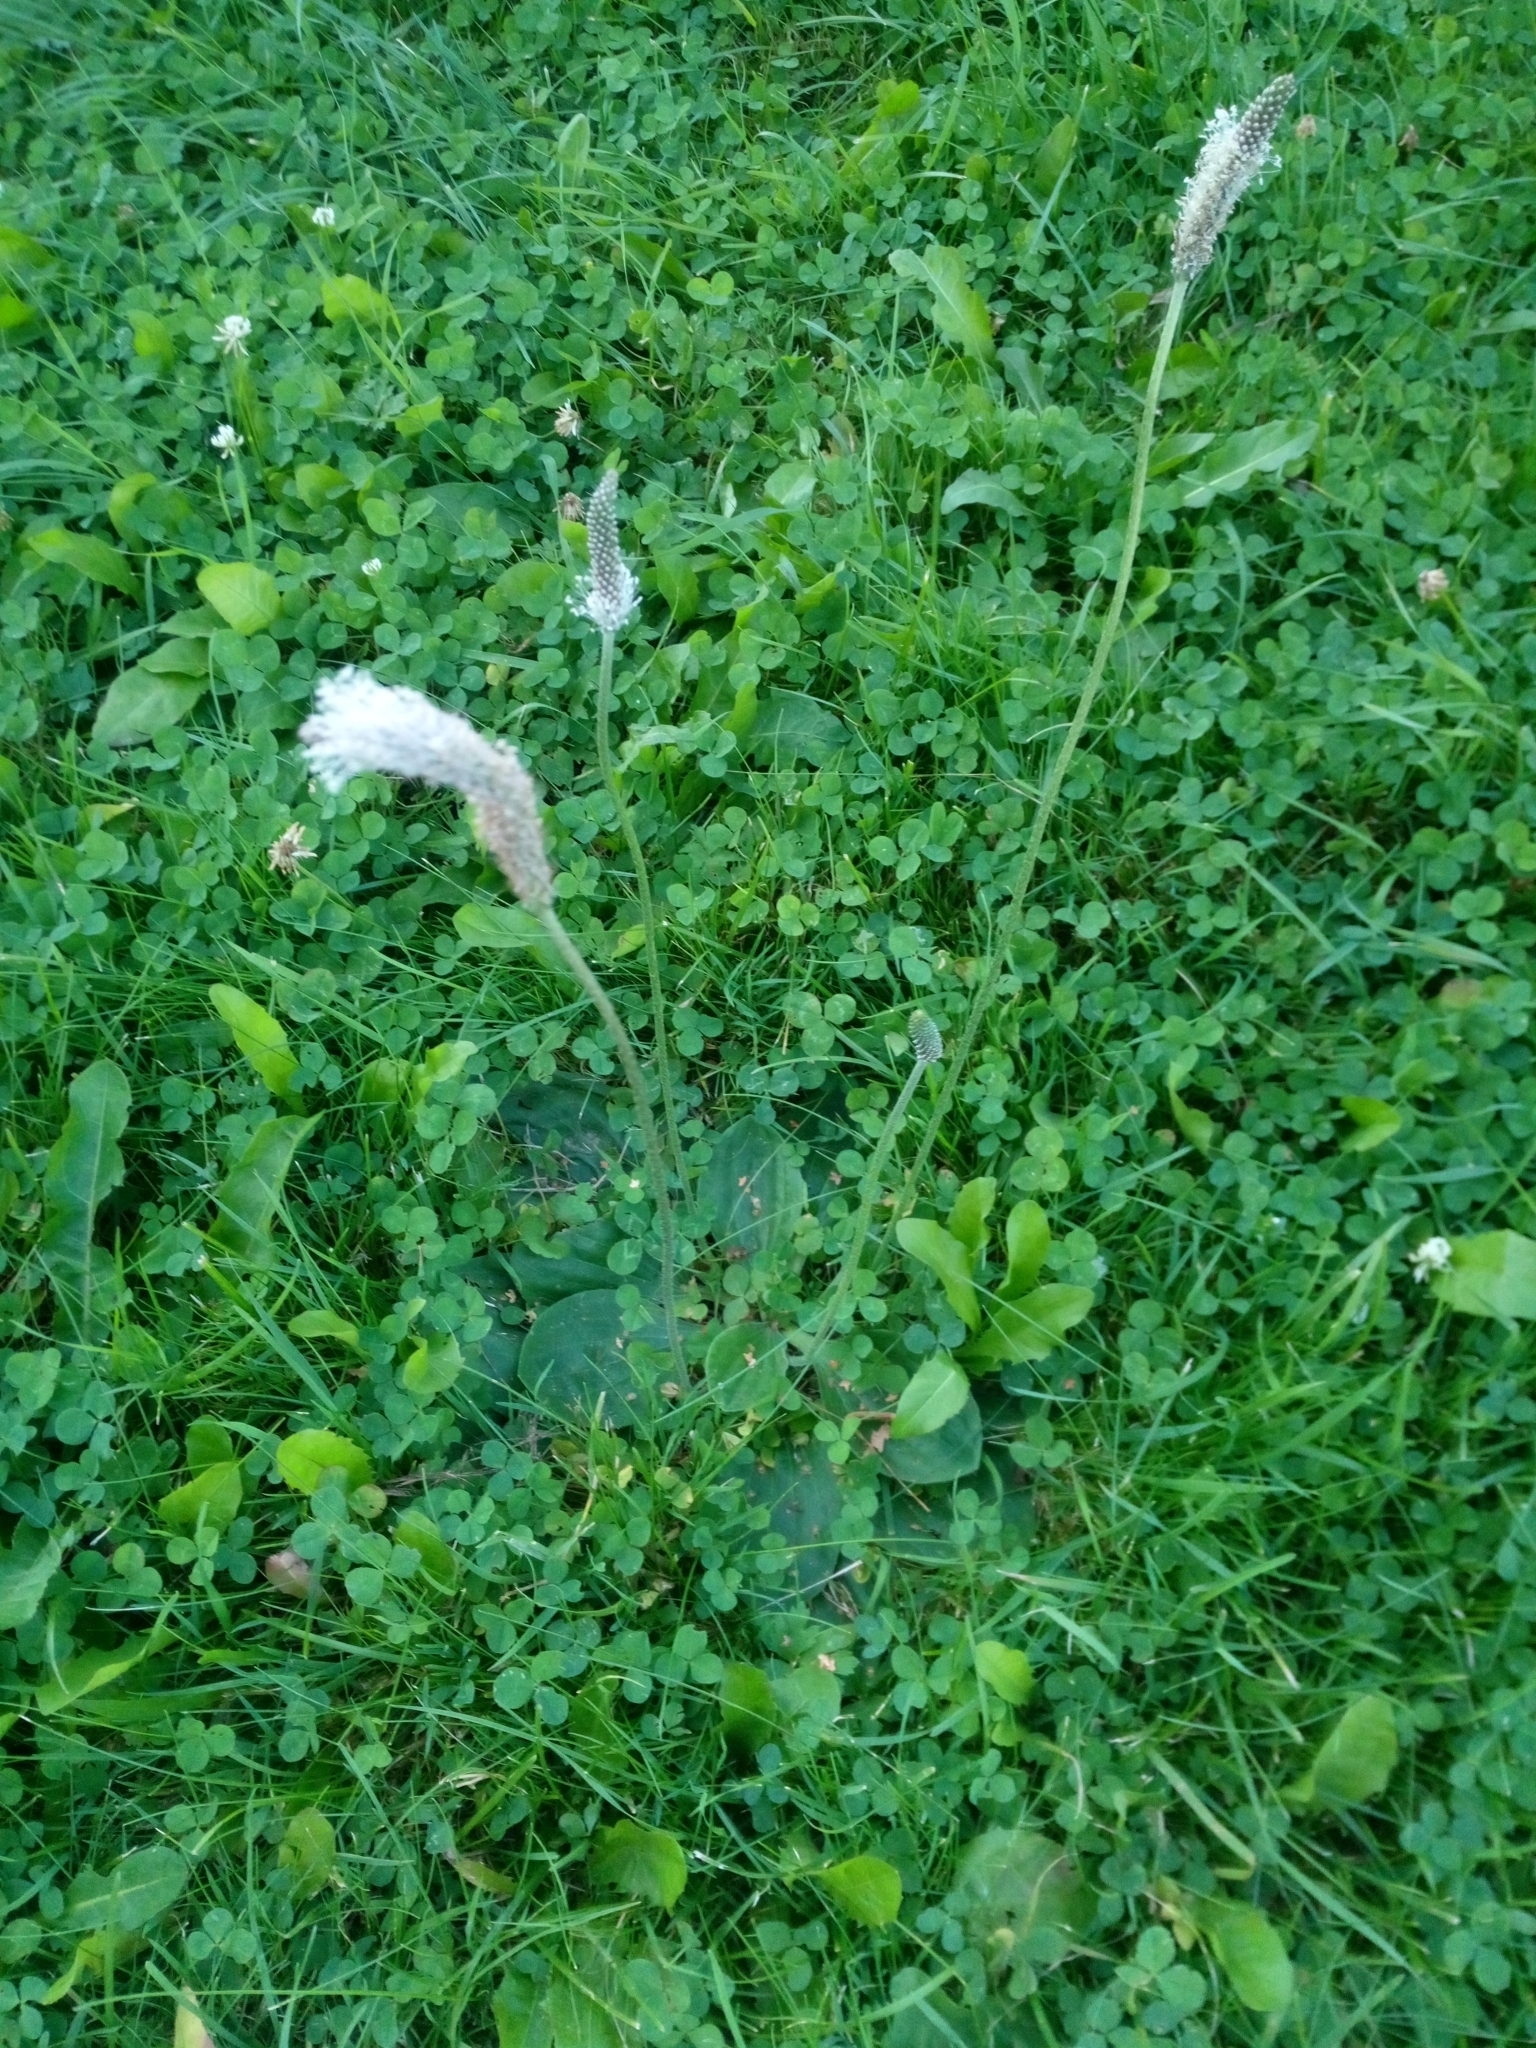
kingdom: Plantae
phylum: Tracheophyta
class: Magnoliopsida
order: Lamiales
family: Plantaginaceae
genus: Plantago
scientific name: Plantago media
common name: Hoary plantain
